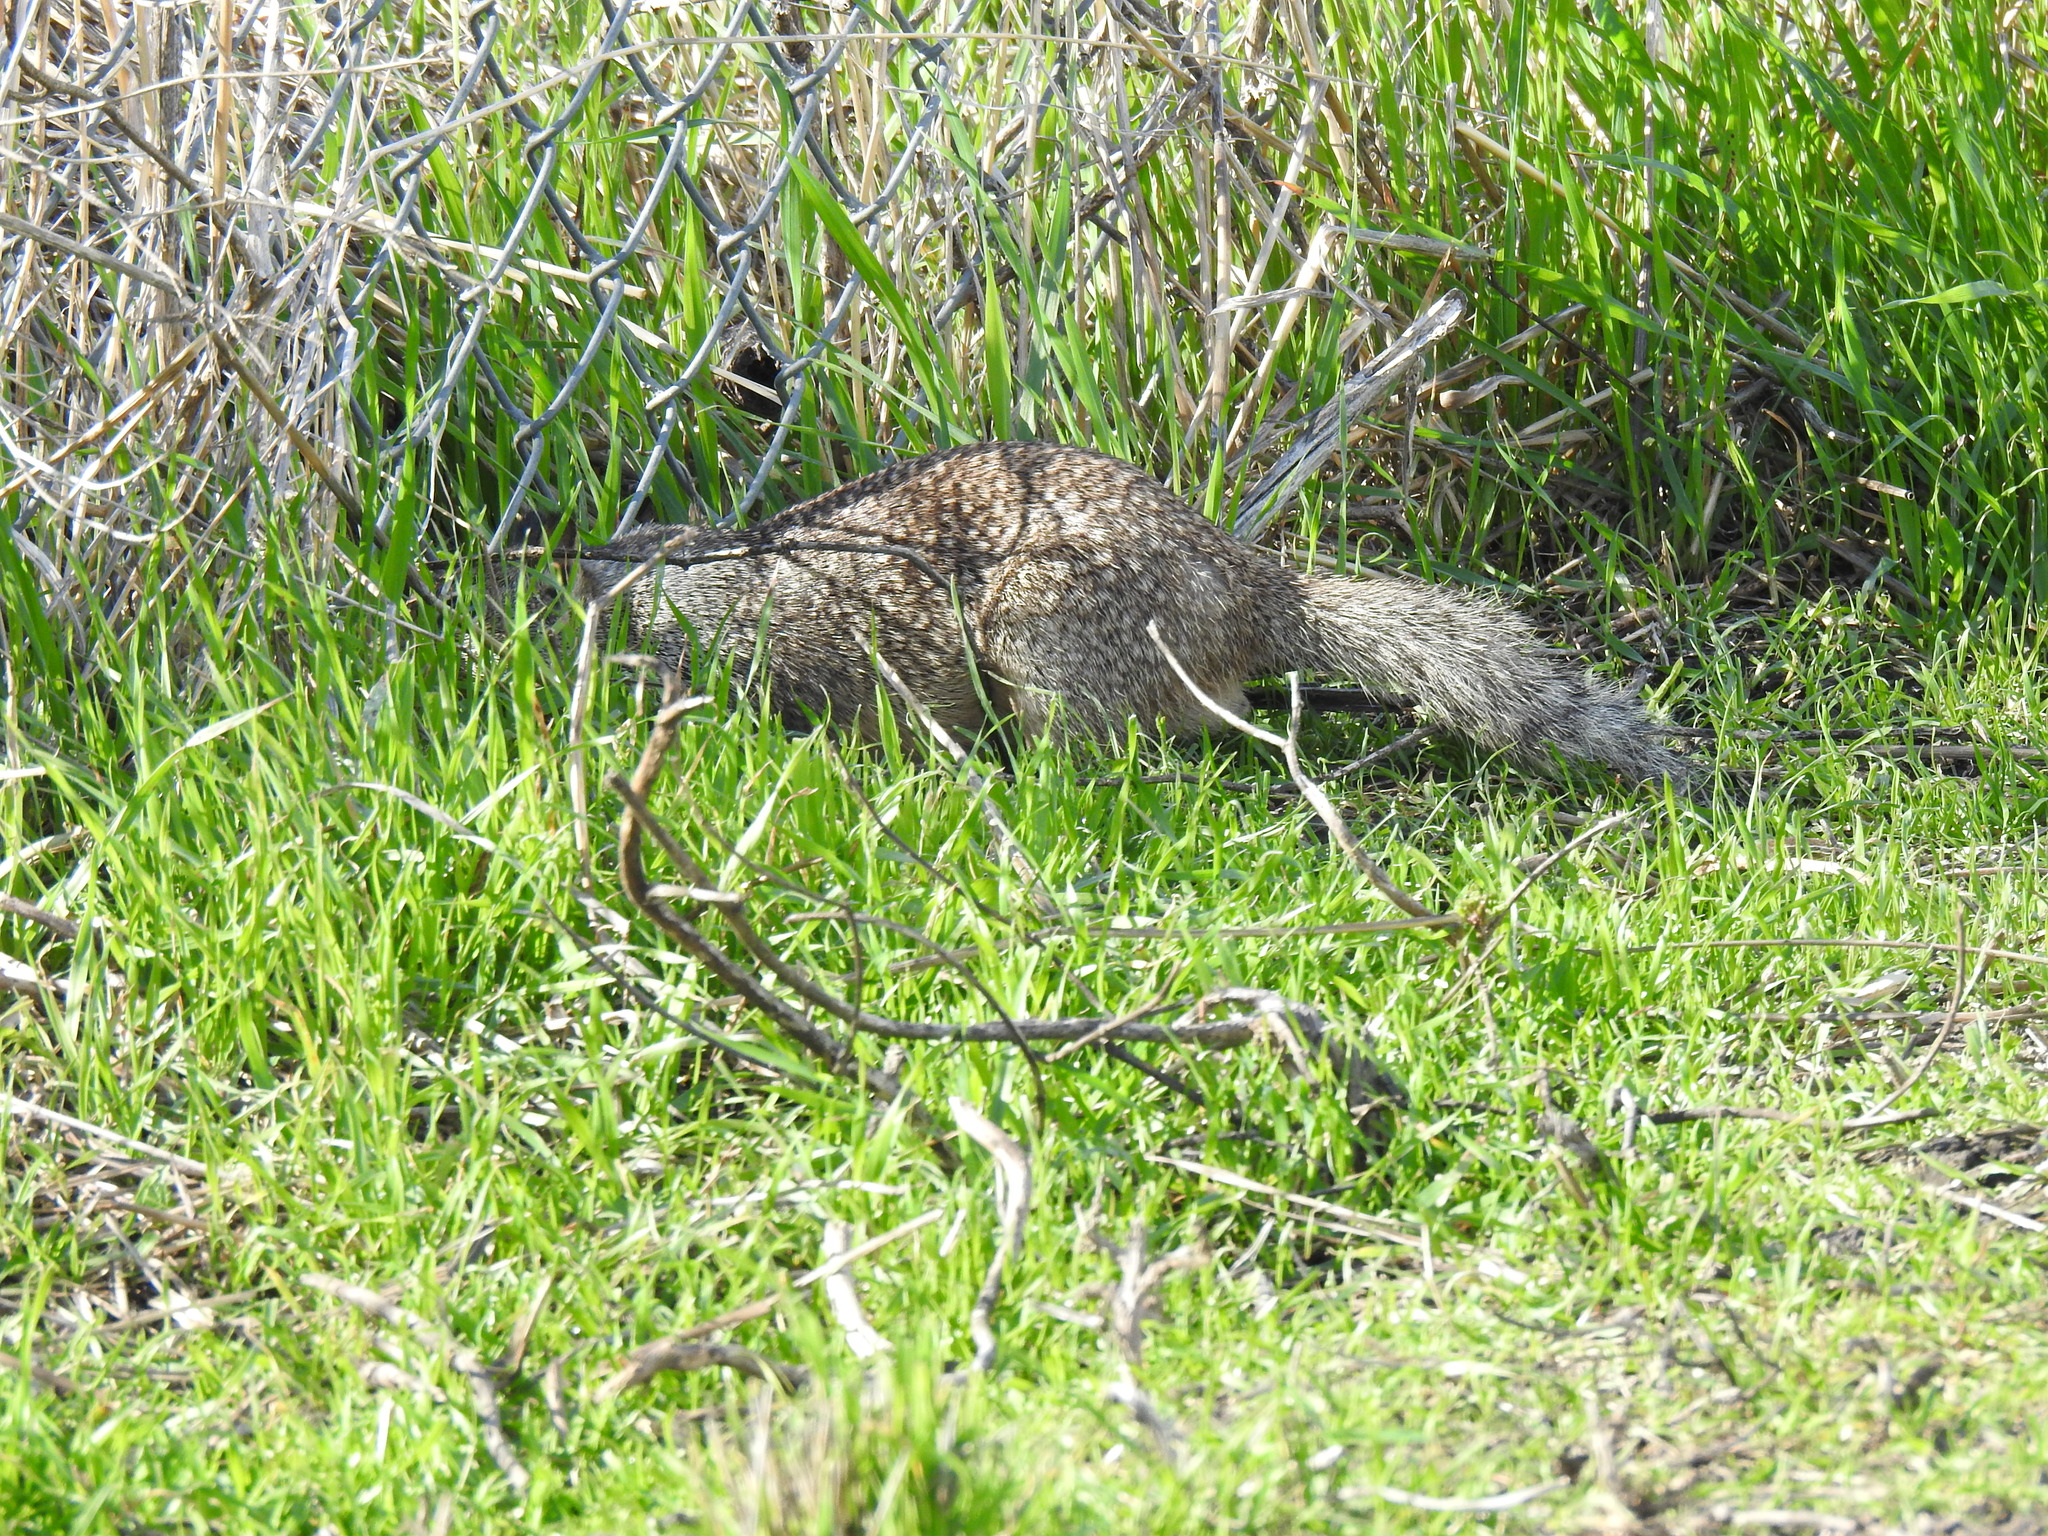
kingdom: Animalia
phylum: Chordata
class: Mammalia
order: Rodentia
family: Sciuridae
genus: Otospermophilus
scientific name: Otospermophilus beecheyi
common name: California ground squirrel
